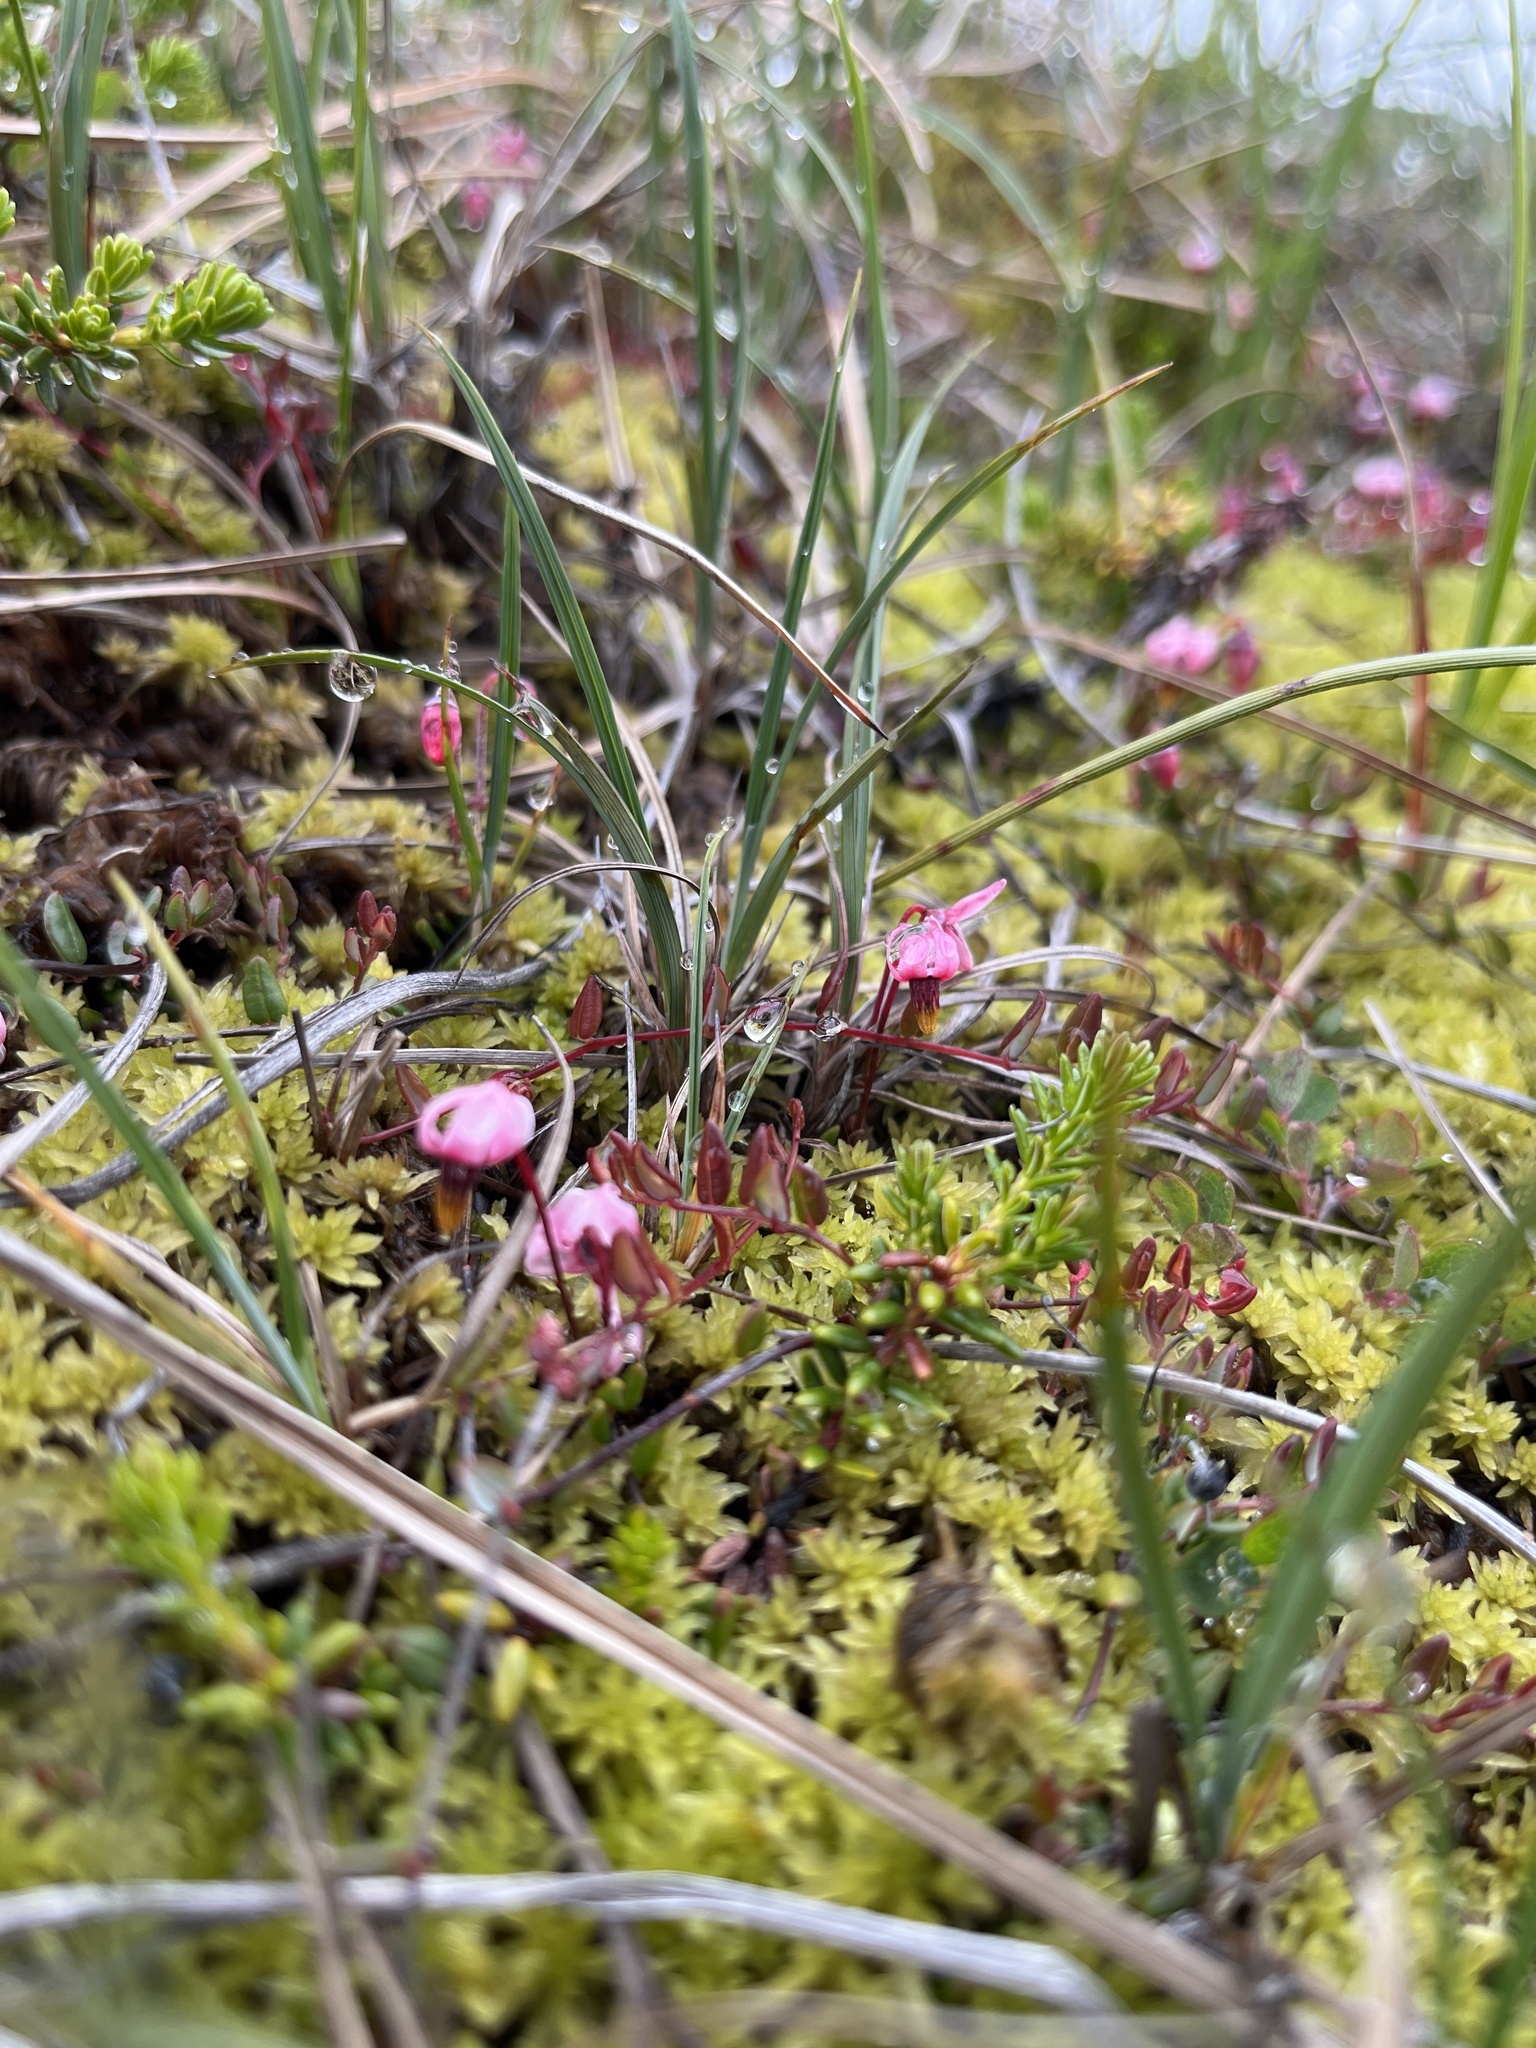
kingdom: Plantae
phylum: Tracheophyta
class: Magnoliopsida
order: Ericales
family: Ericaceae
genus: Vaccinium
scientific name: Vaccinium microcarpum
